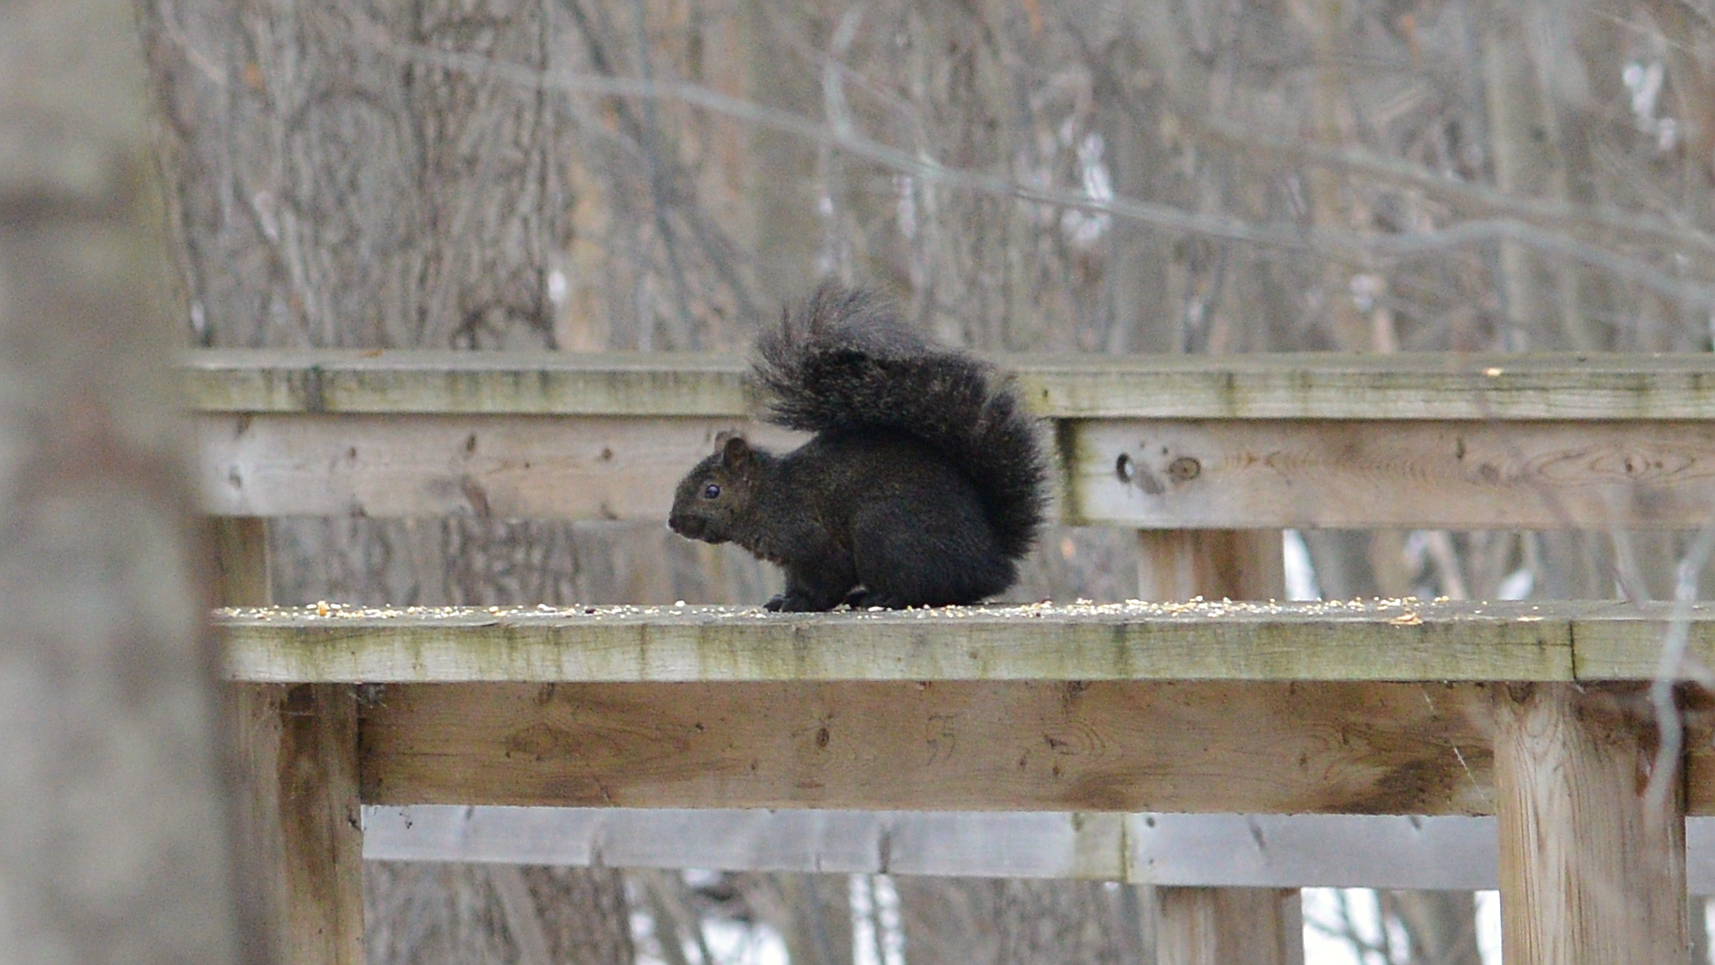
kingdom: Animalia
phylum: Chordata
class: Mammalia
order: Rodentia
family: Sciuridae
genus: Sciurus
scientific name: Sciurus carolinensis
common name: Eastern gray squirrel
